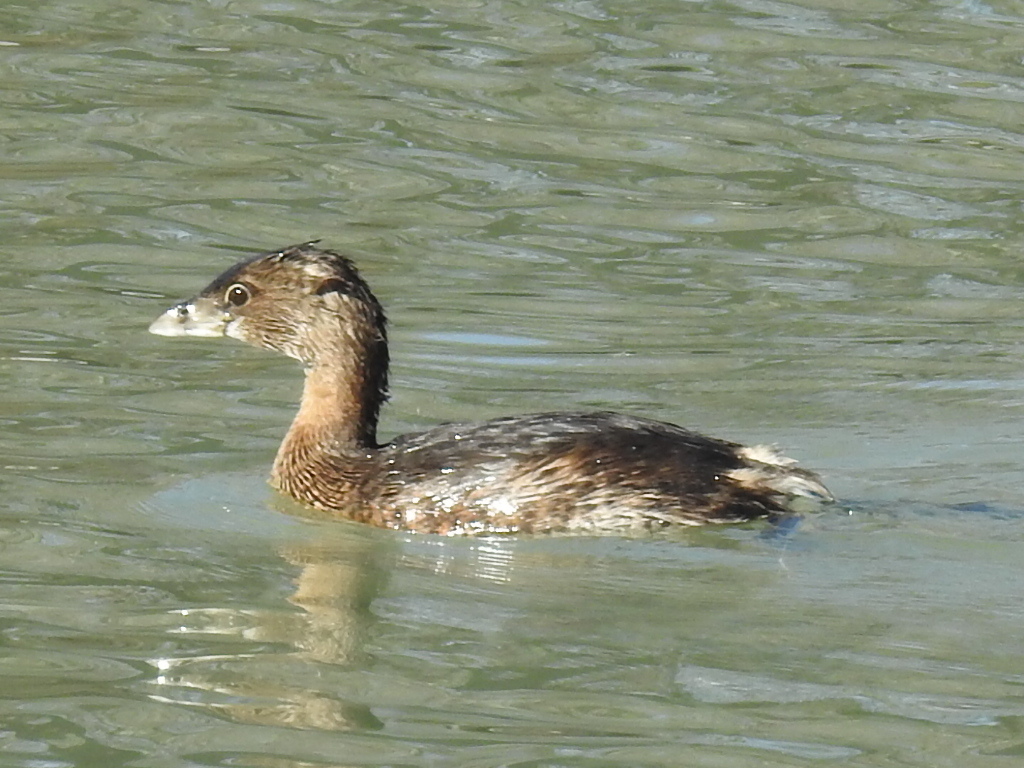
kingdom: Animalia
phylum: Chordata
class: Aves
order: Podicipediformes
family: Podicipedidae
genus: Podilymbus
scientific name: Podilymbus podiceps
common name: Pied-billed grebe
